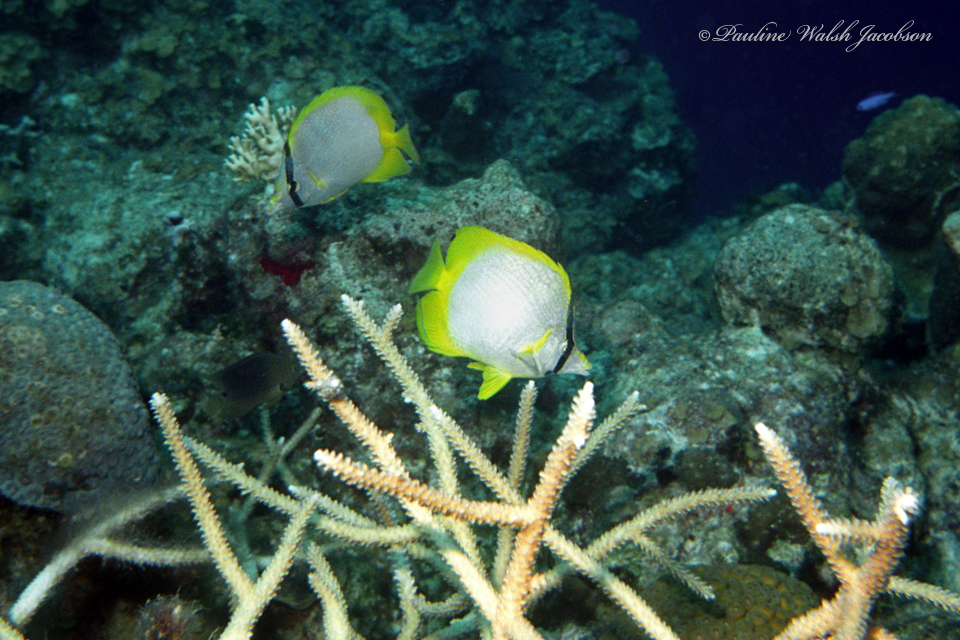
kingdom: Animalia
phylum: Chordata
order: Perciformes
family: Chaetodontidae
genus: Chaetodon
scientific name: Chaetodon ocellatus
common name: Spotfin butterflyfish
